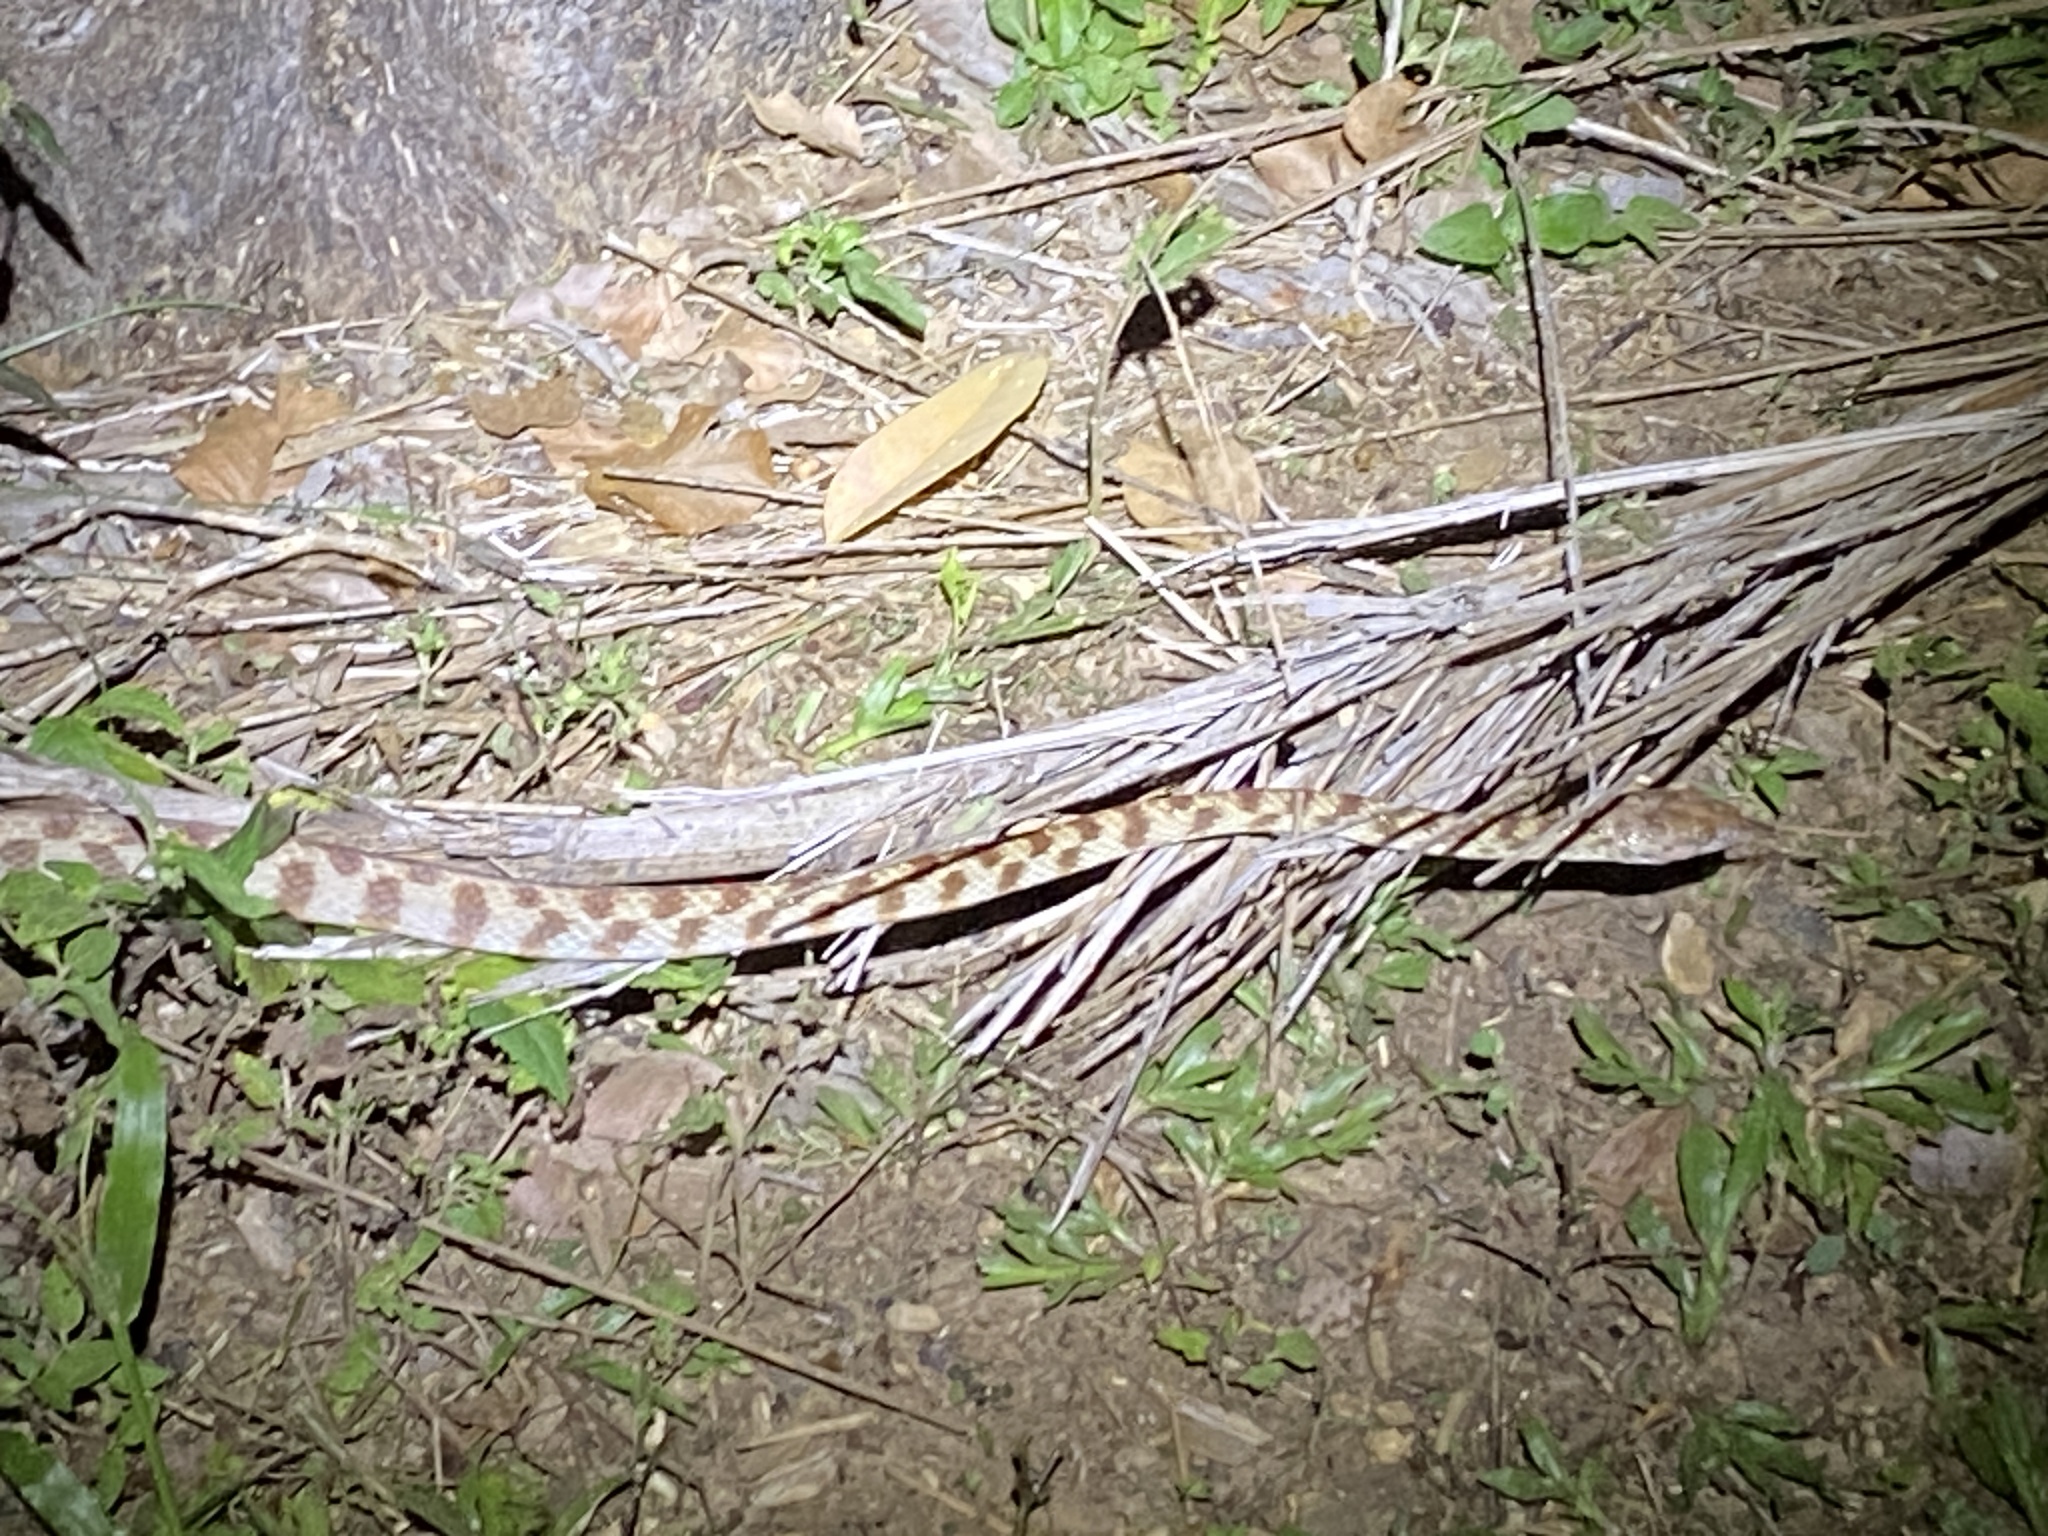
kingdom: Animalia
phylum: Chordata
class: Squamata
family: Colubridae
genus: Boiga
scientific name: Boiga irregularis
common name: Brown tree snake
